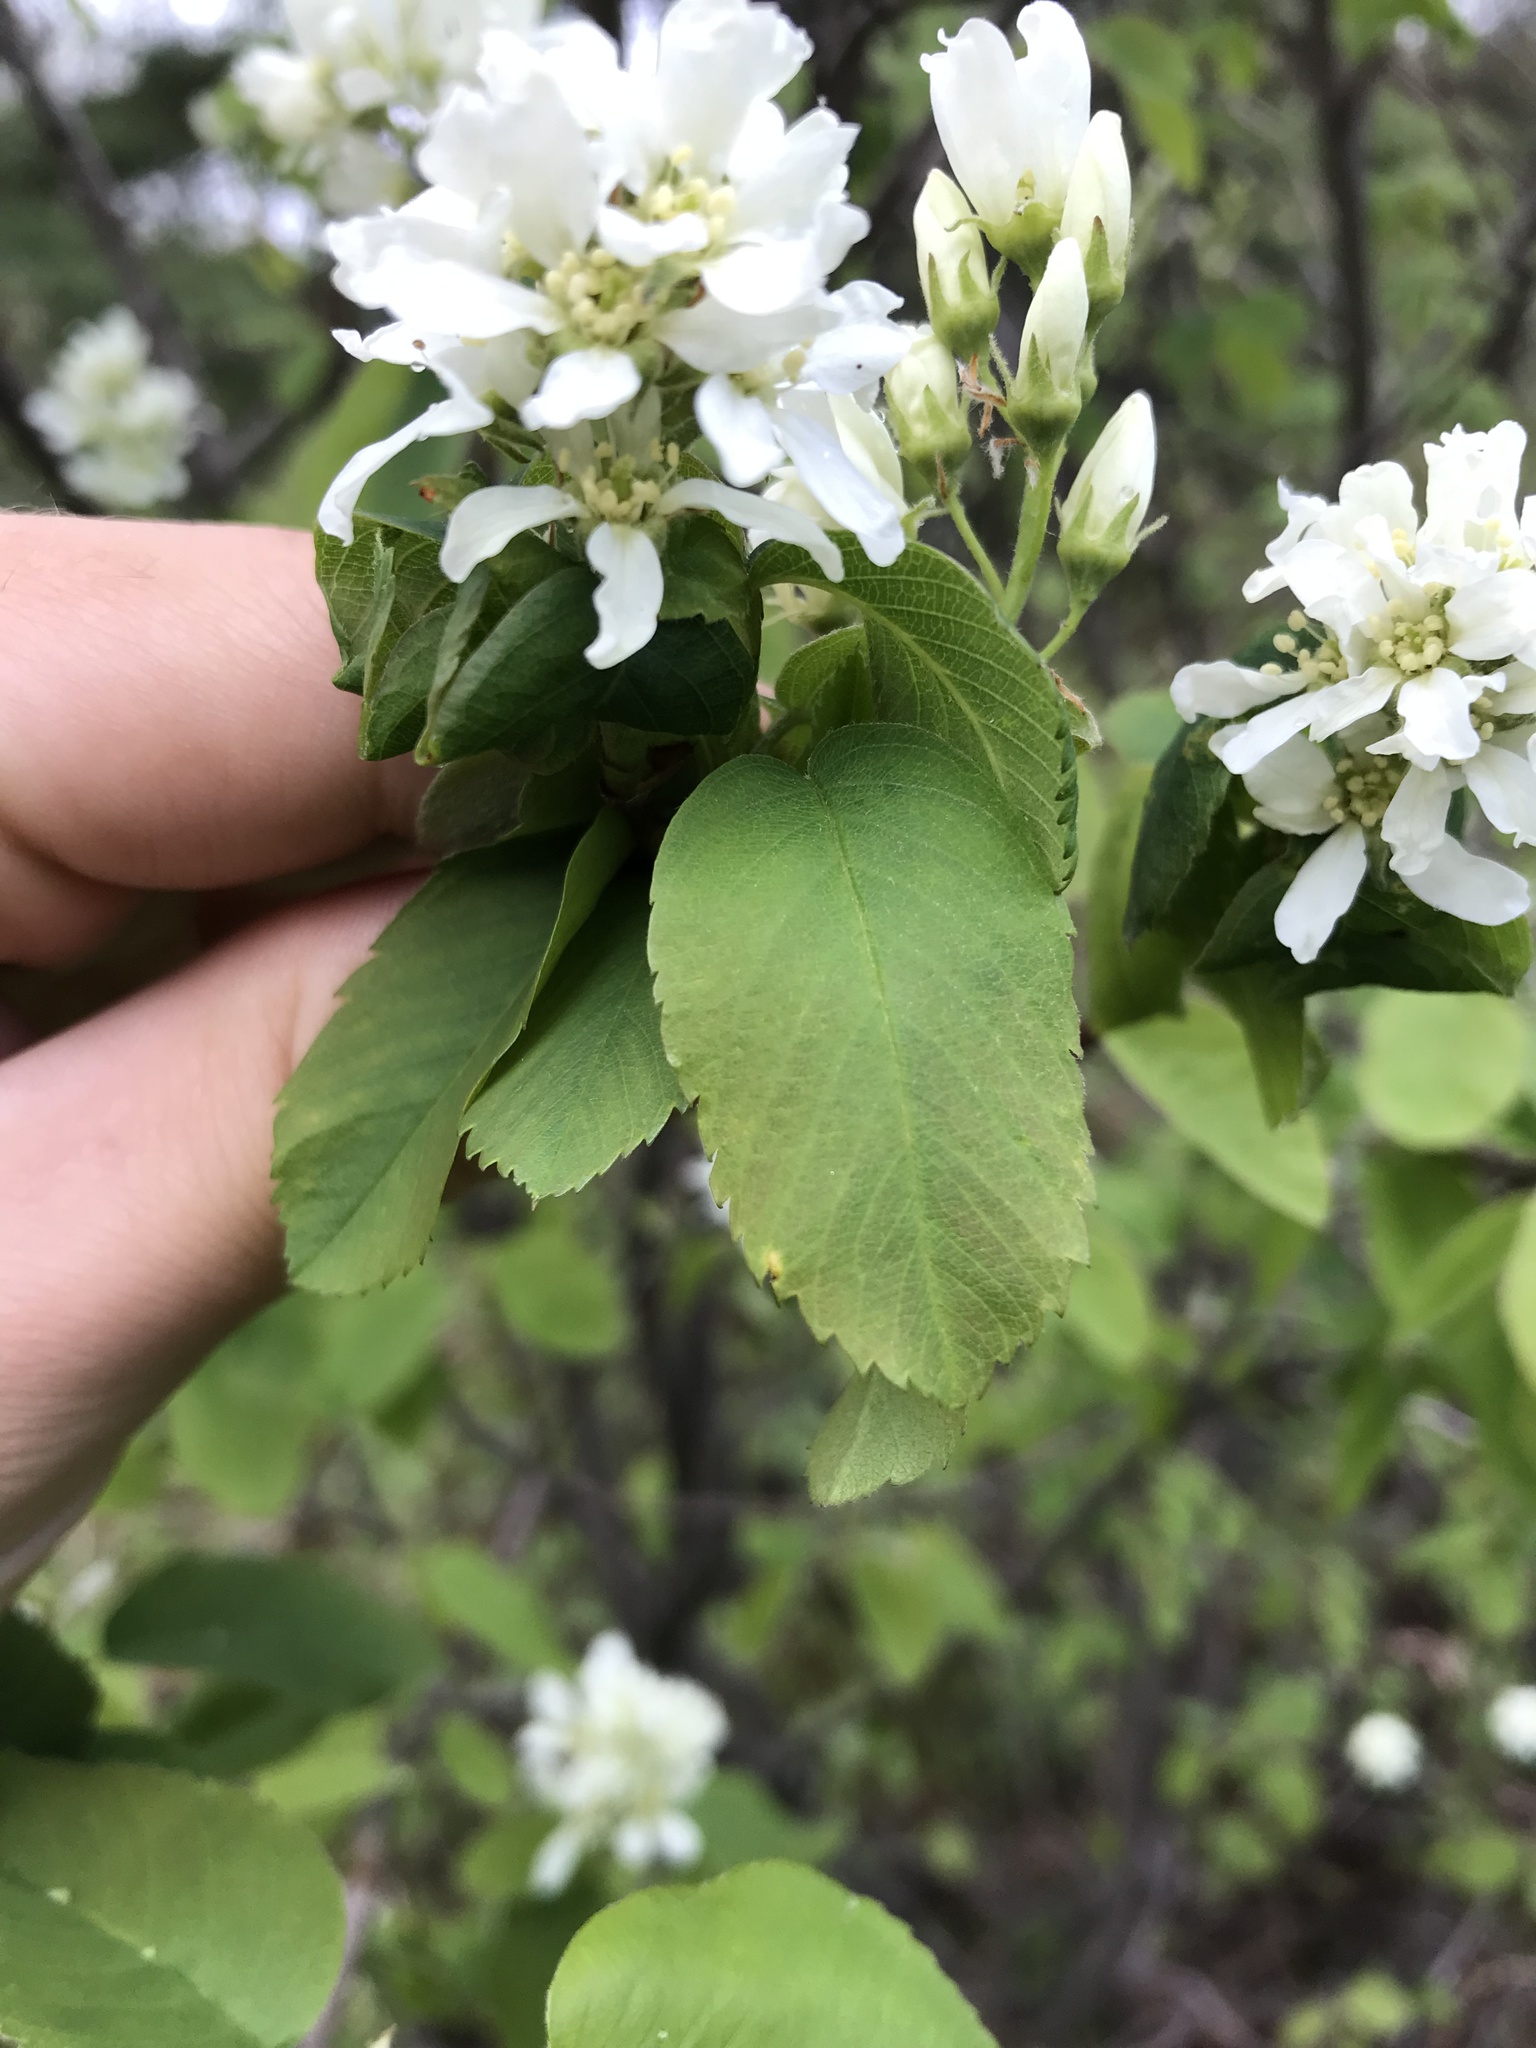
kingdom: Plantae
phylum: Tracheophyta
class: Magnoliopsida
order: Rosales
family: Rosaceae
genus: Amelanchier
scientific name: Amelanchier alnifolia
